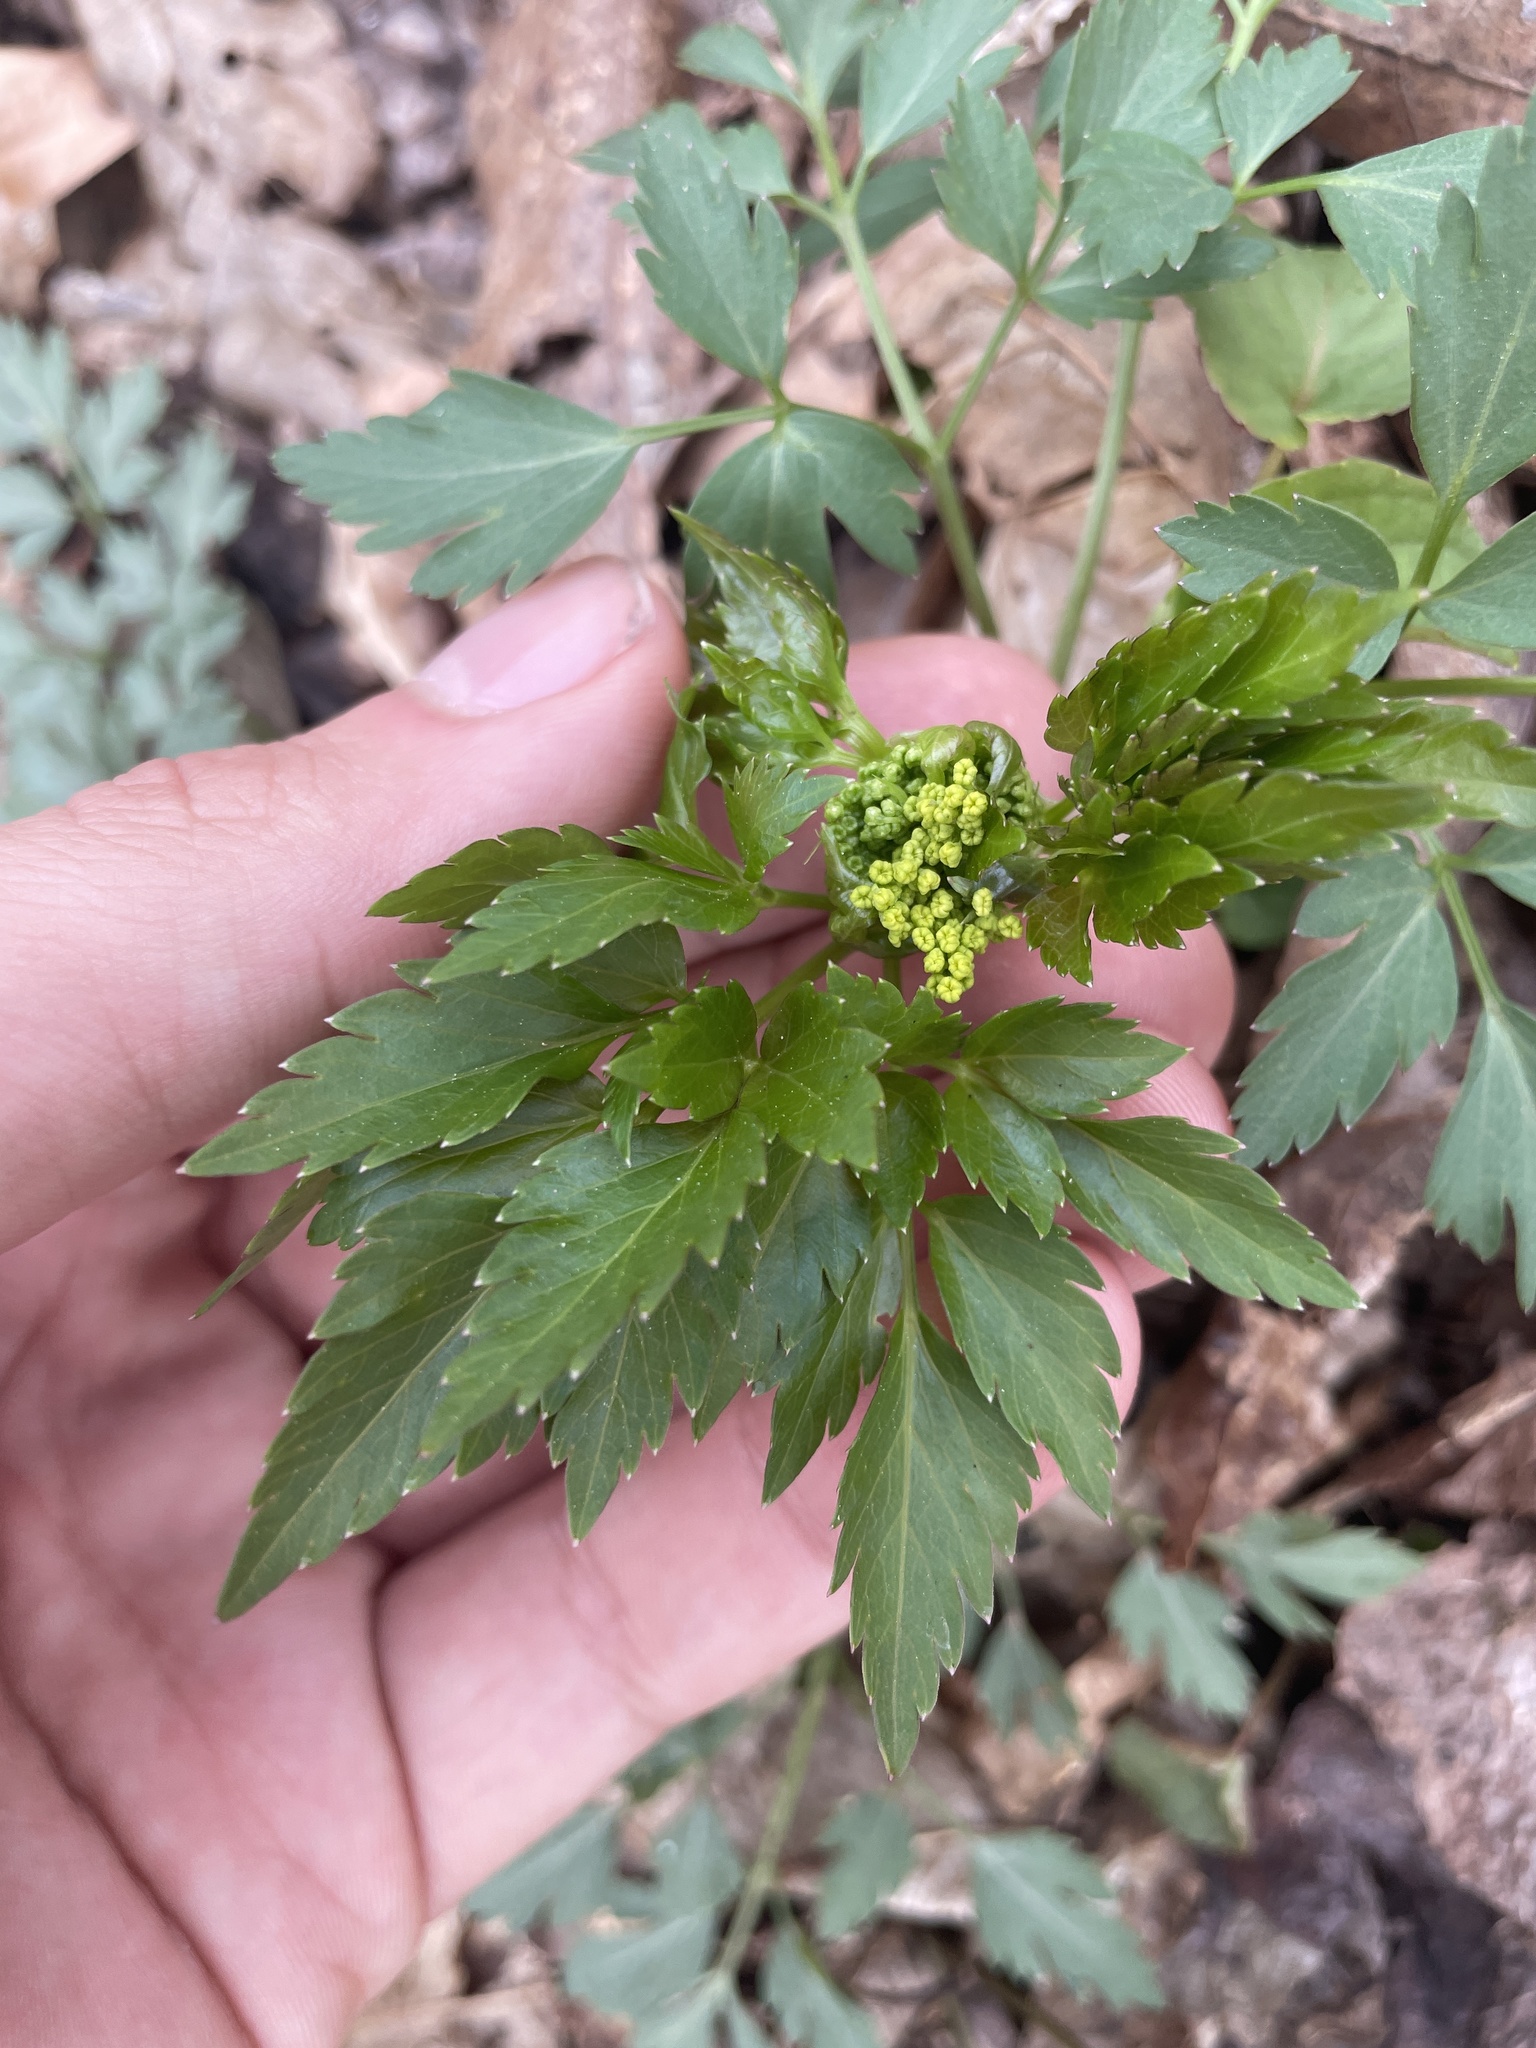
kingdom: Plantae
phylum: Tracheophyta
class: Magnoliopsida
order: Apiales
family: Apiaceae
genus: Zizia
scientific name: Zizia aurea
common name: Golden alexanders
